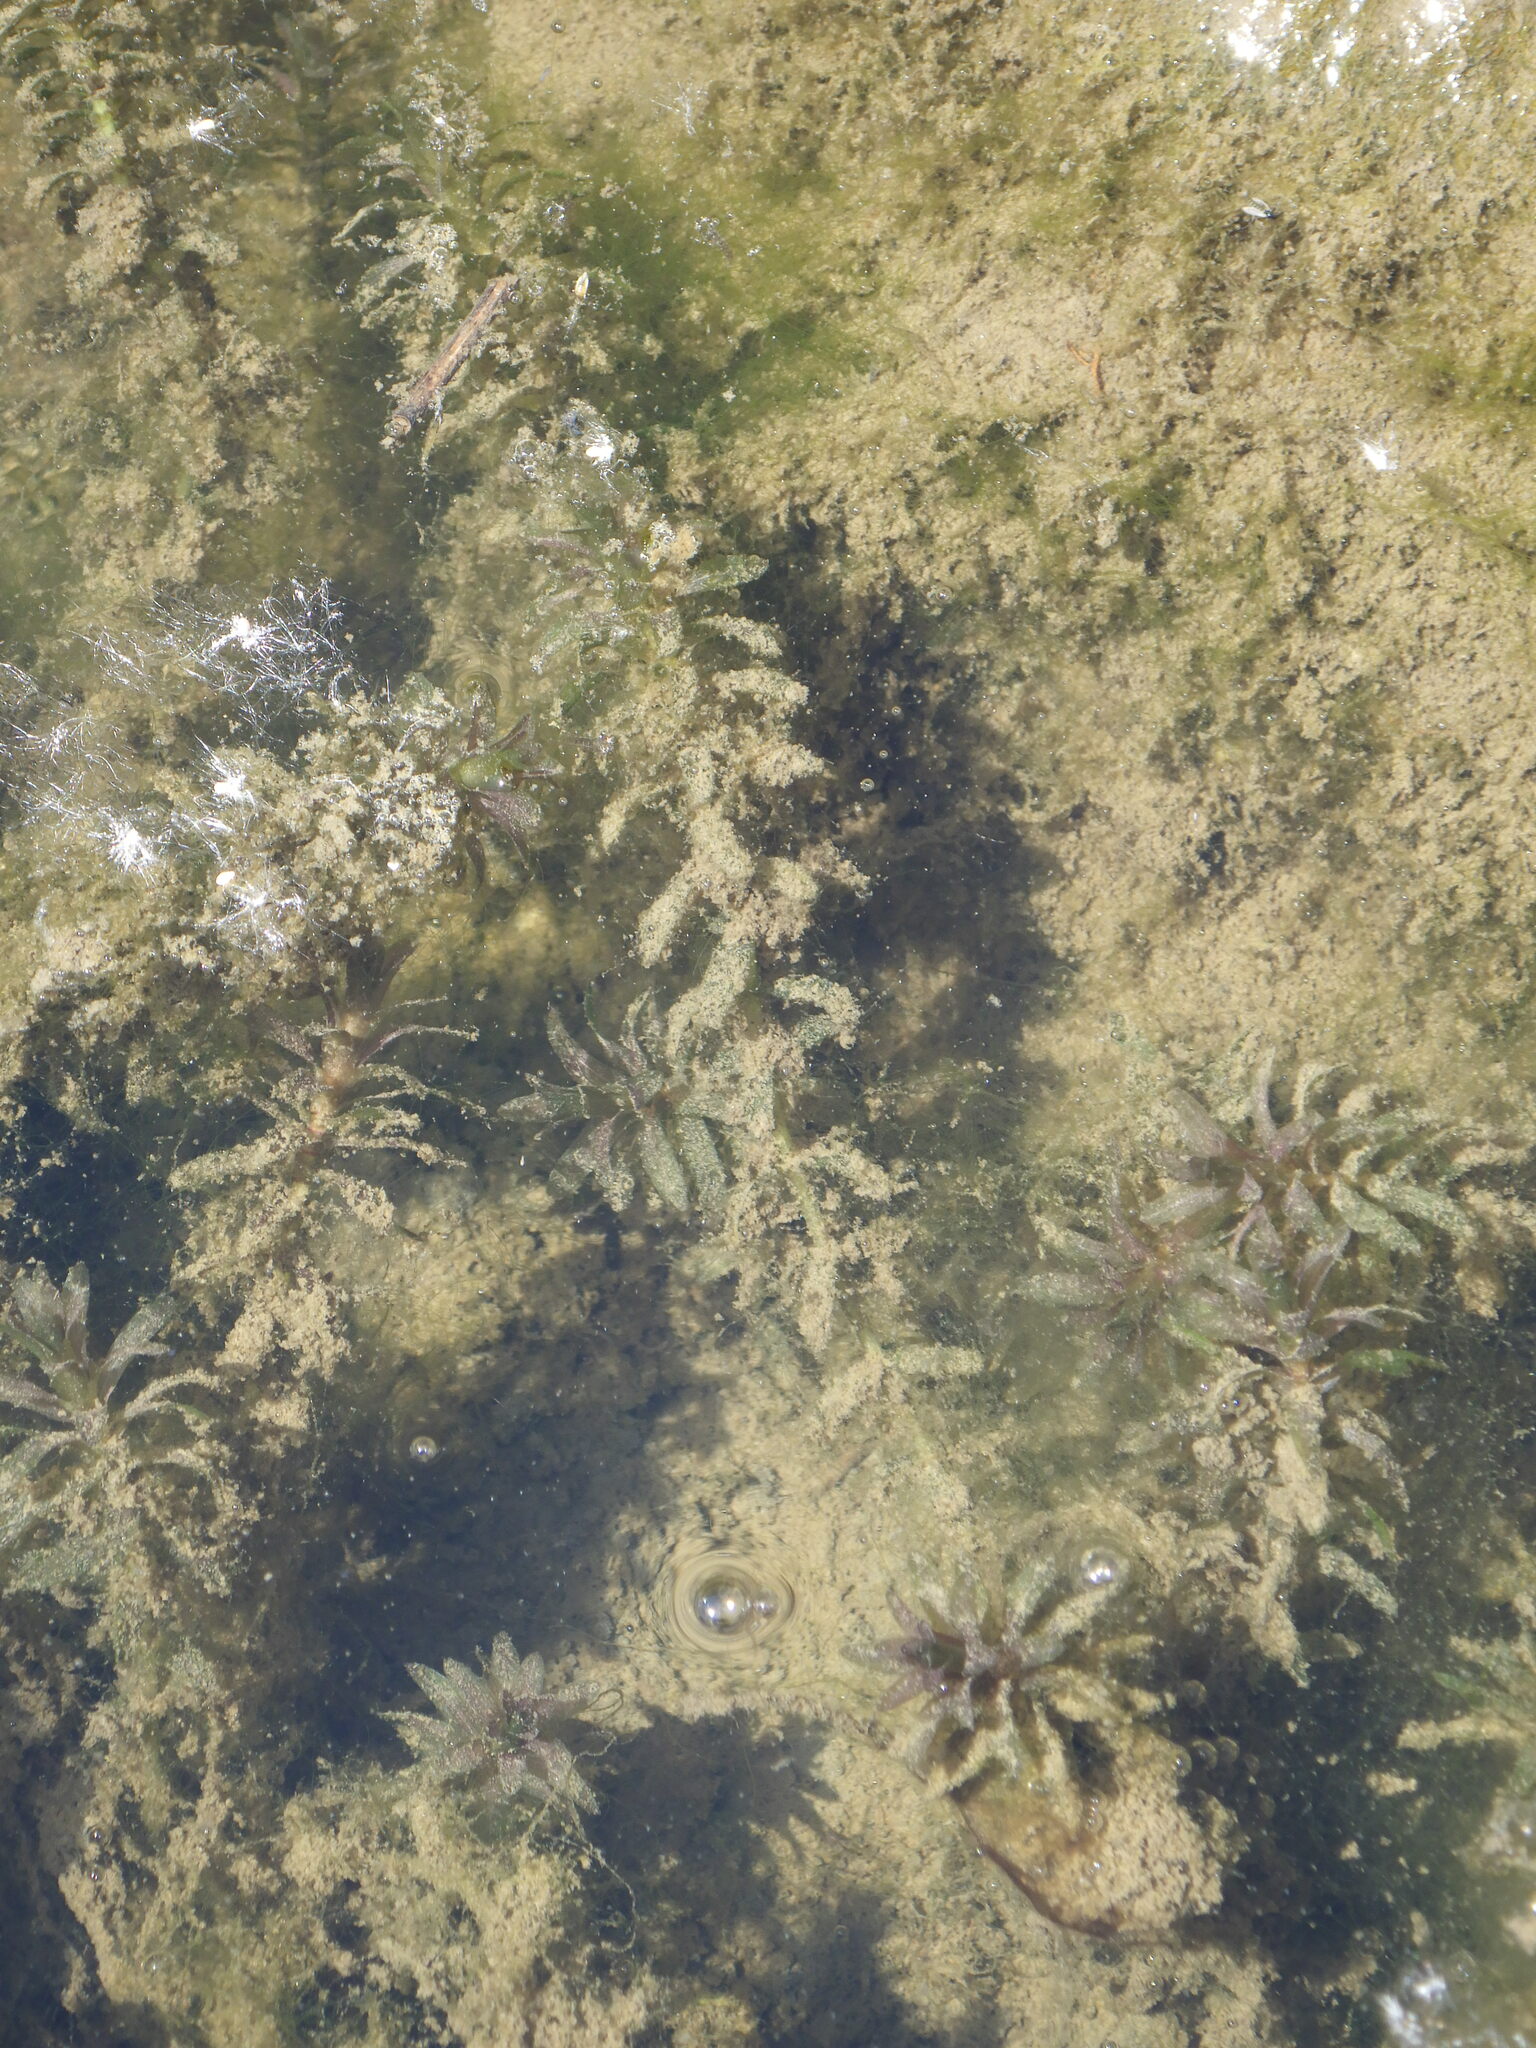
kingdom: Plantae
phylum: Tracheophyta
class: Liliopsida
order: Alismatales
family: Hydrocharitaceae
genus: Elodea
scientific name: Elodea canadensis
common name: Canadian waterweed
